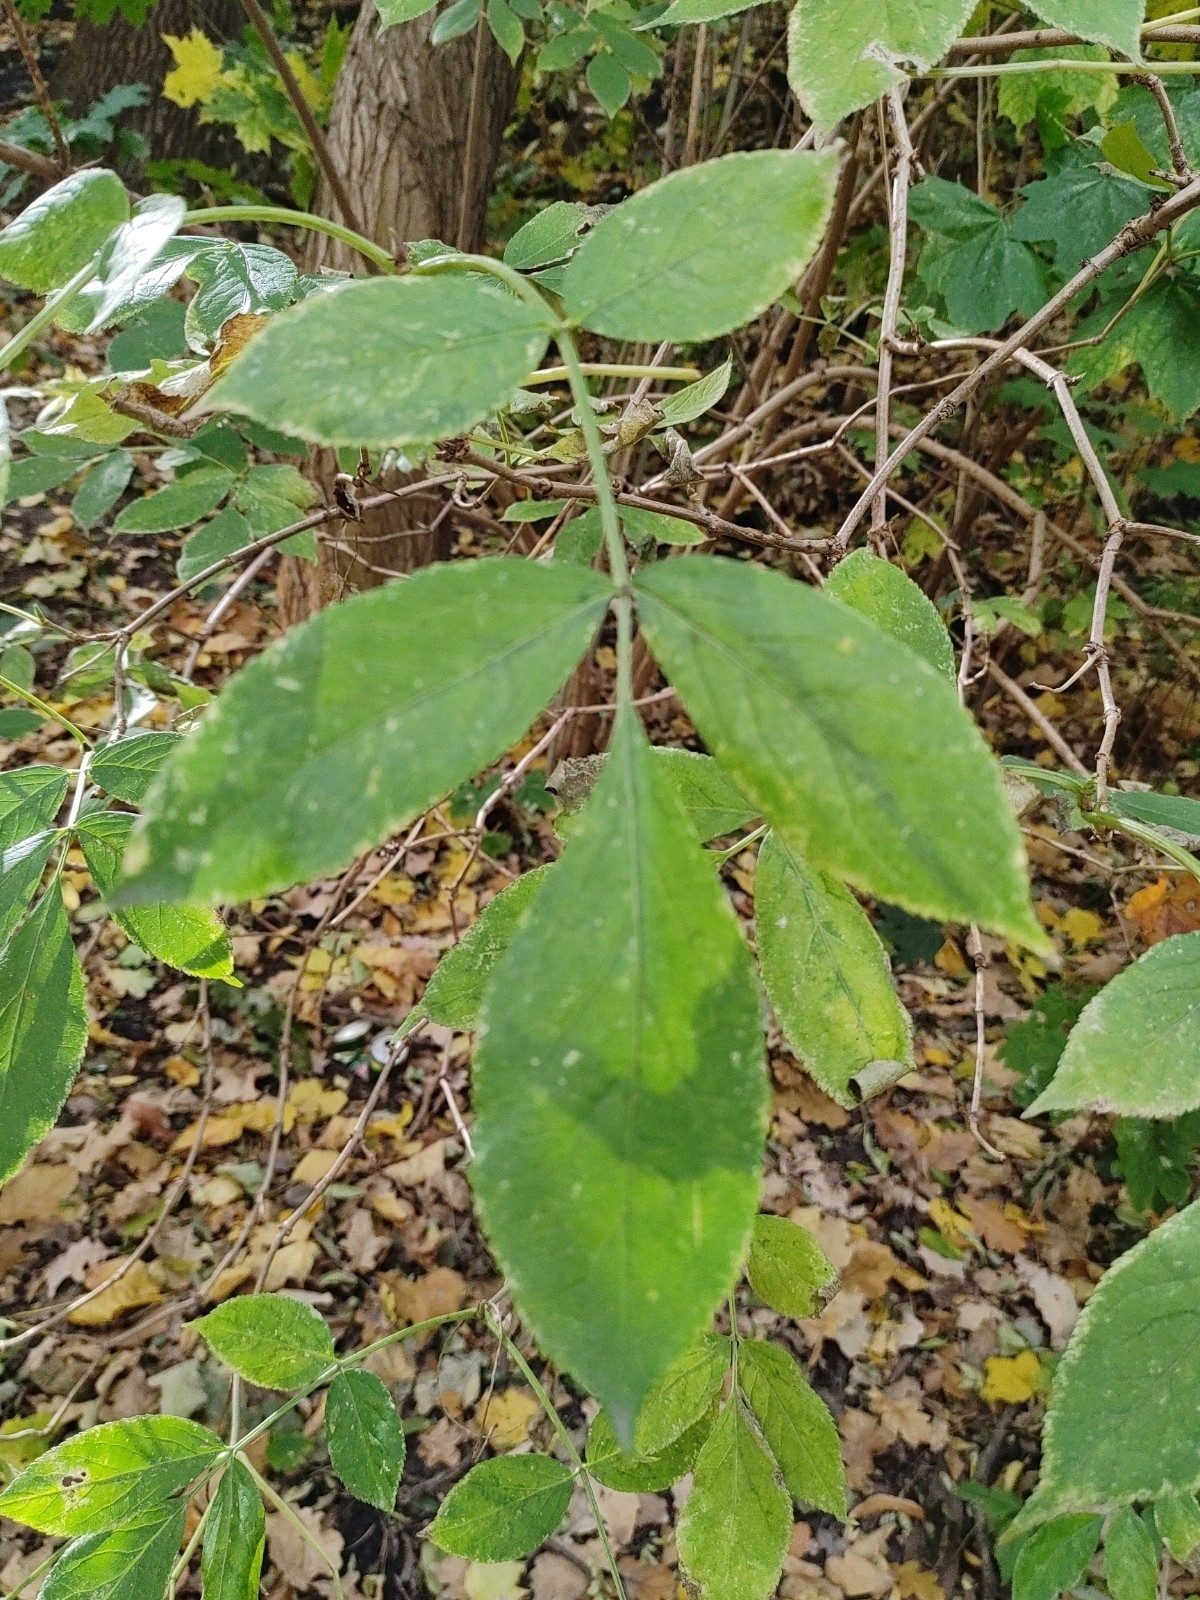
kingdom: Plantae
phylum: Tracheophyta
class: Magnoliopsida
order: Dipsacales
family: Viburnaceae
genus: Sambucus
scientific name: Sambucus nigra
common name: Elder
